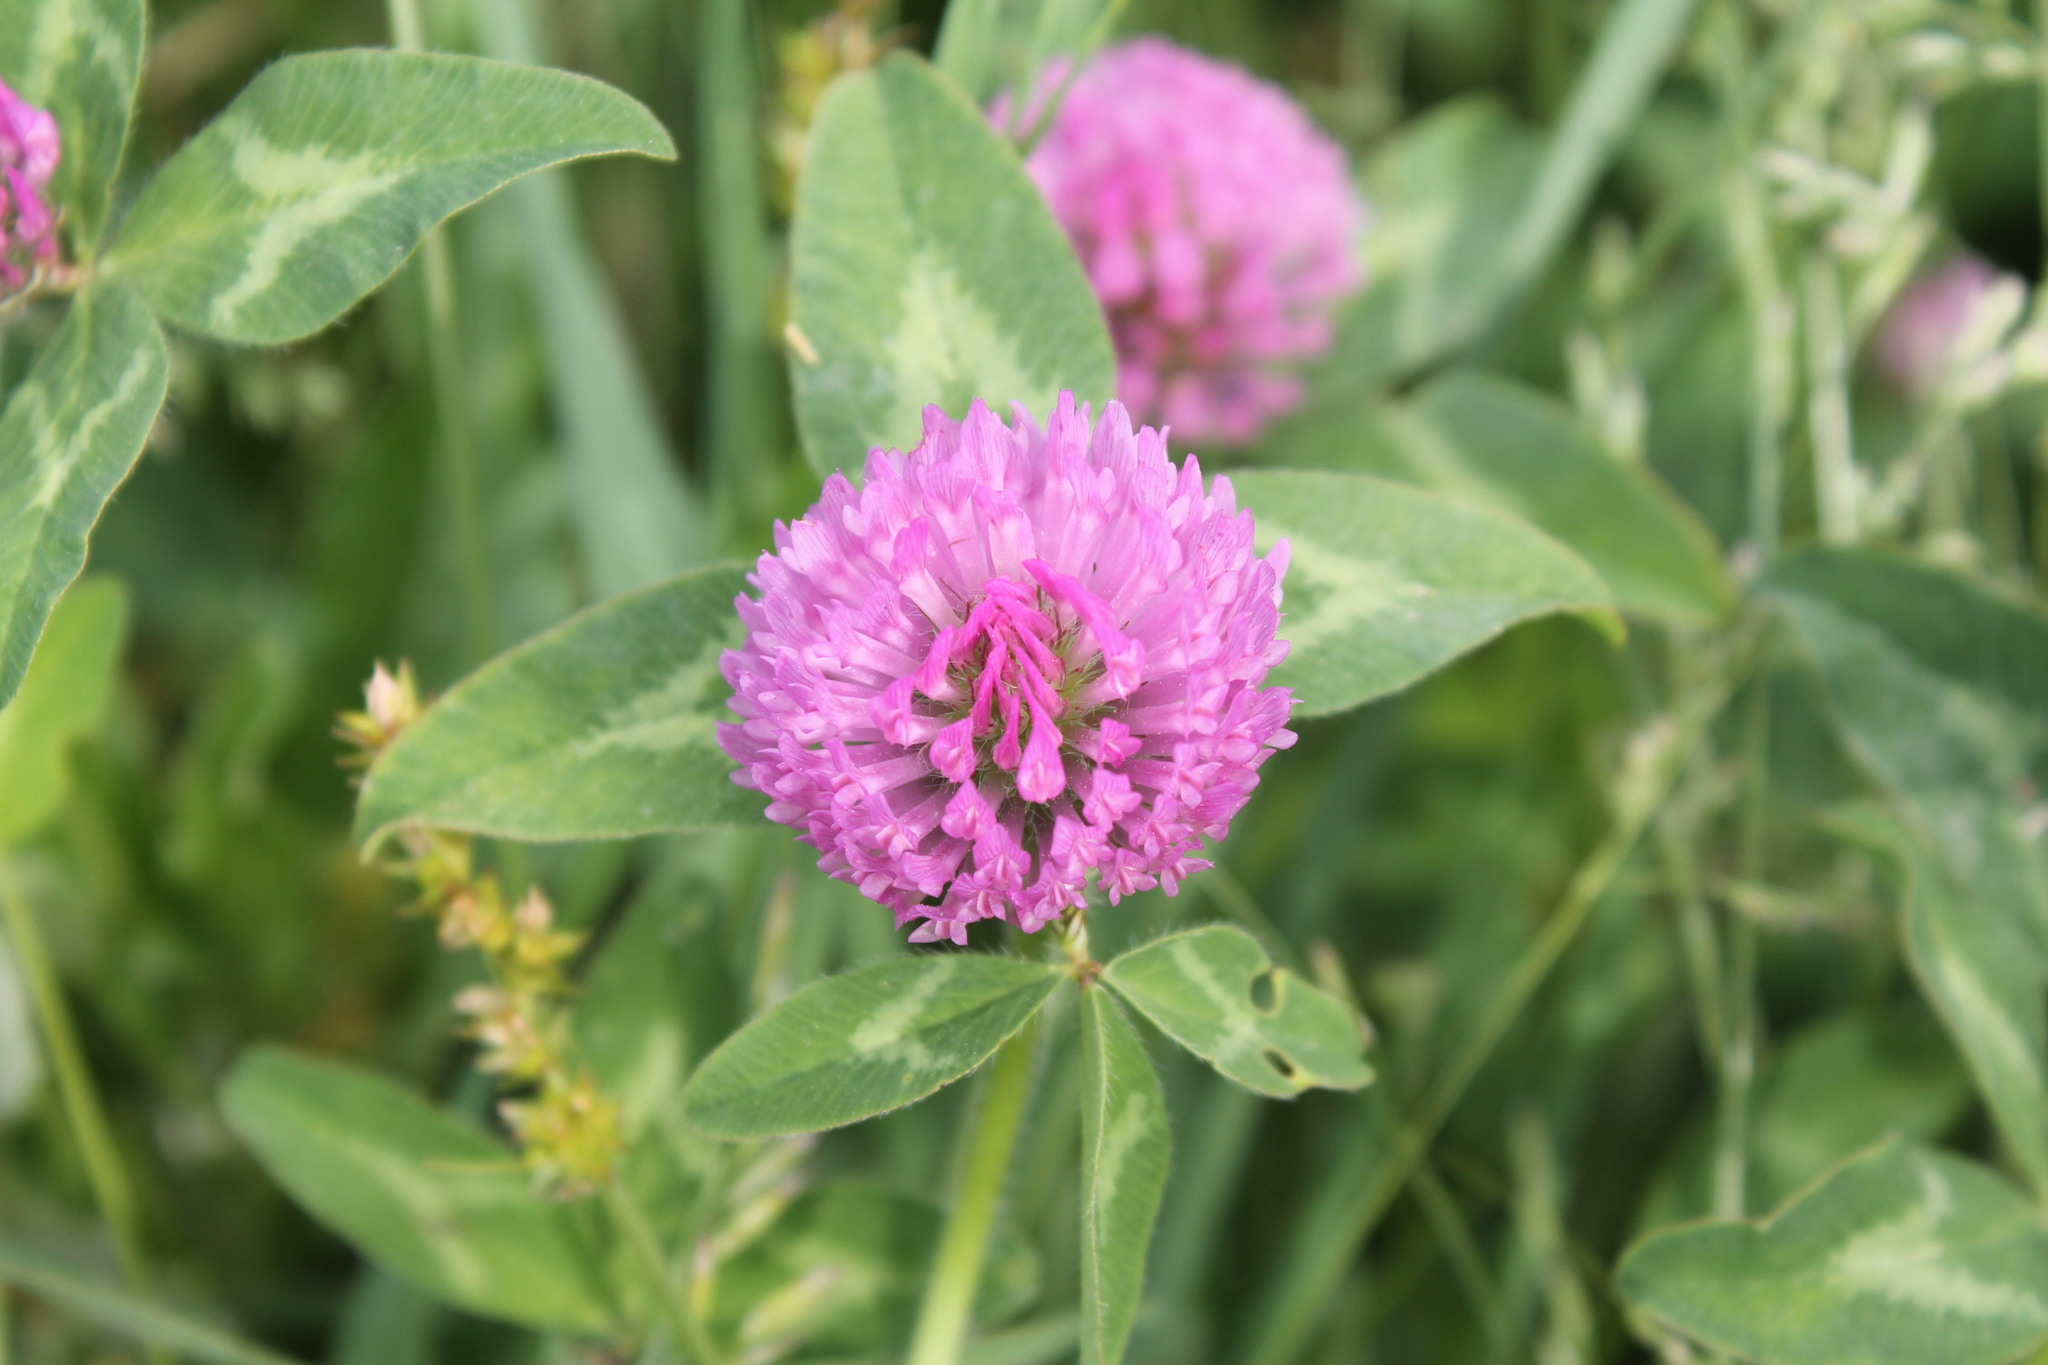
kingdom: Plantae
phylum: Tracheophyta
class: Magnoliopsida
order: Fabales
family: Fabaceae
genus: Trifolium
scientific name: Trifolium pratense
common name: Red clover
